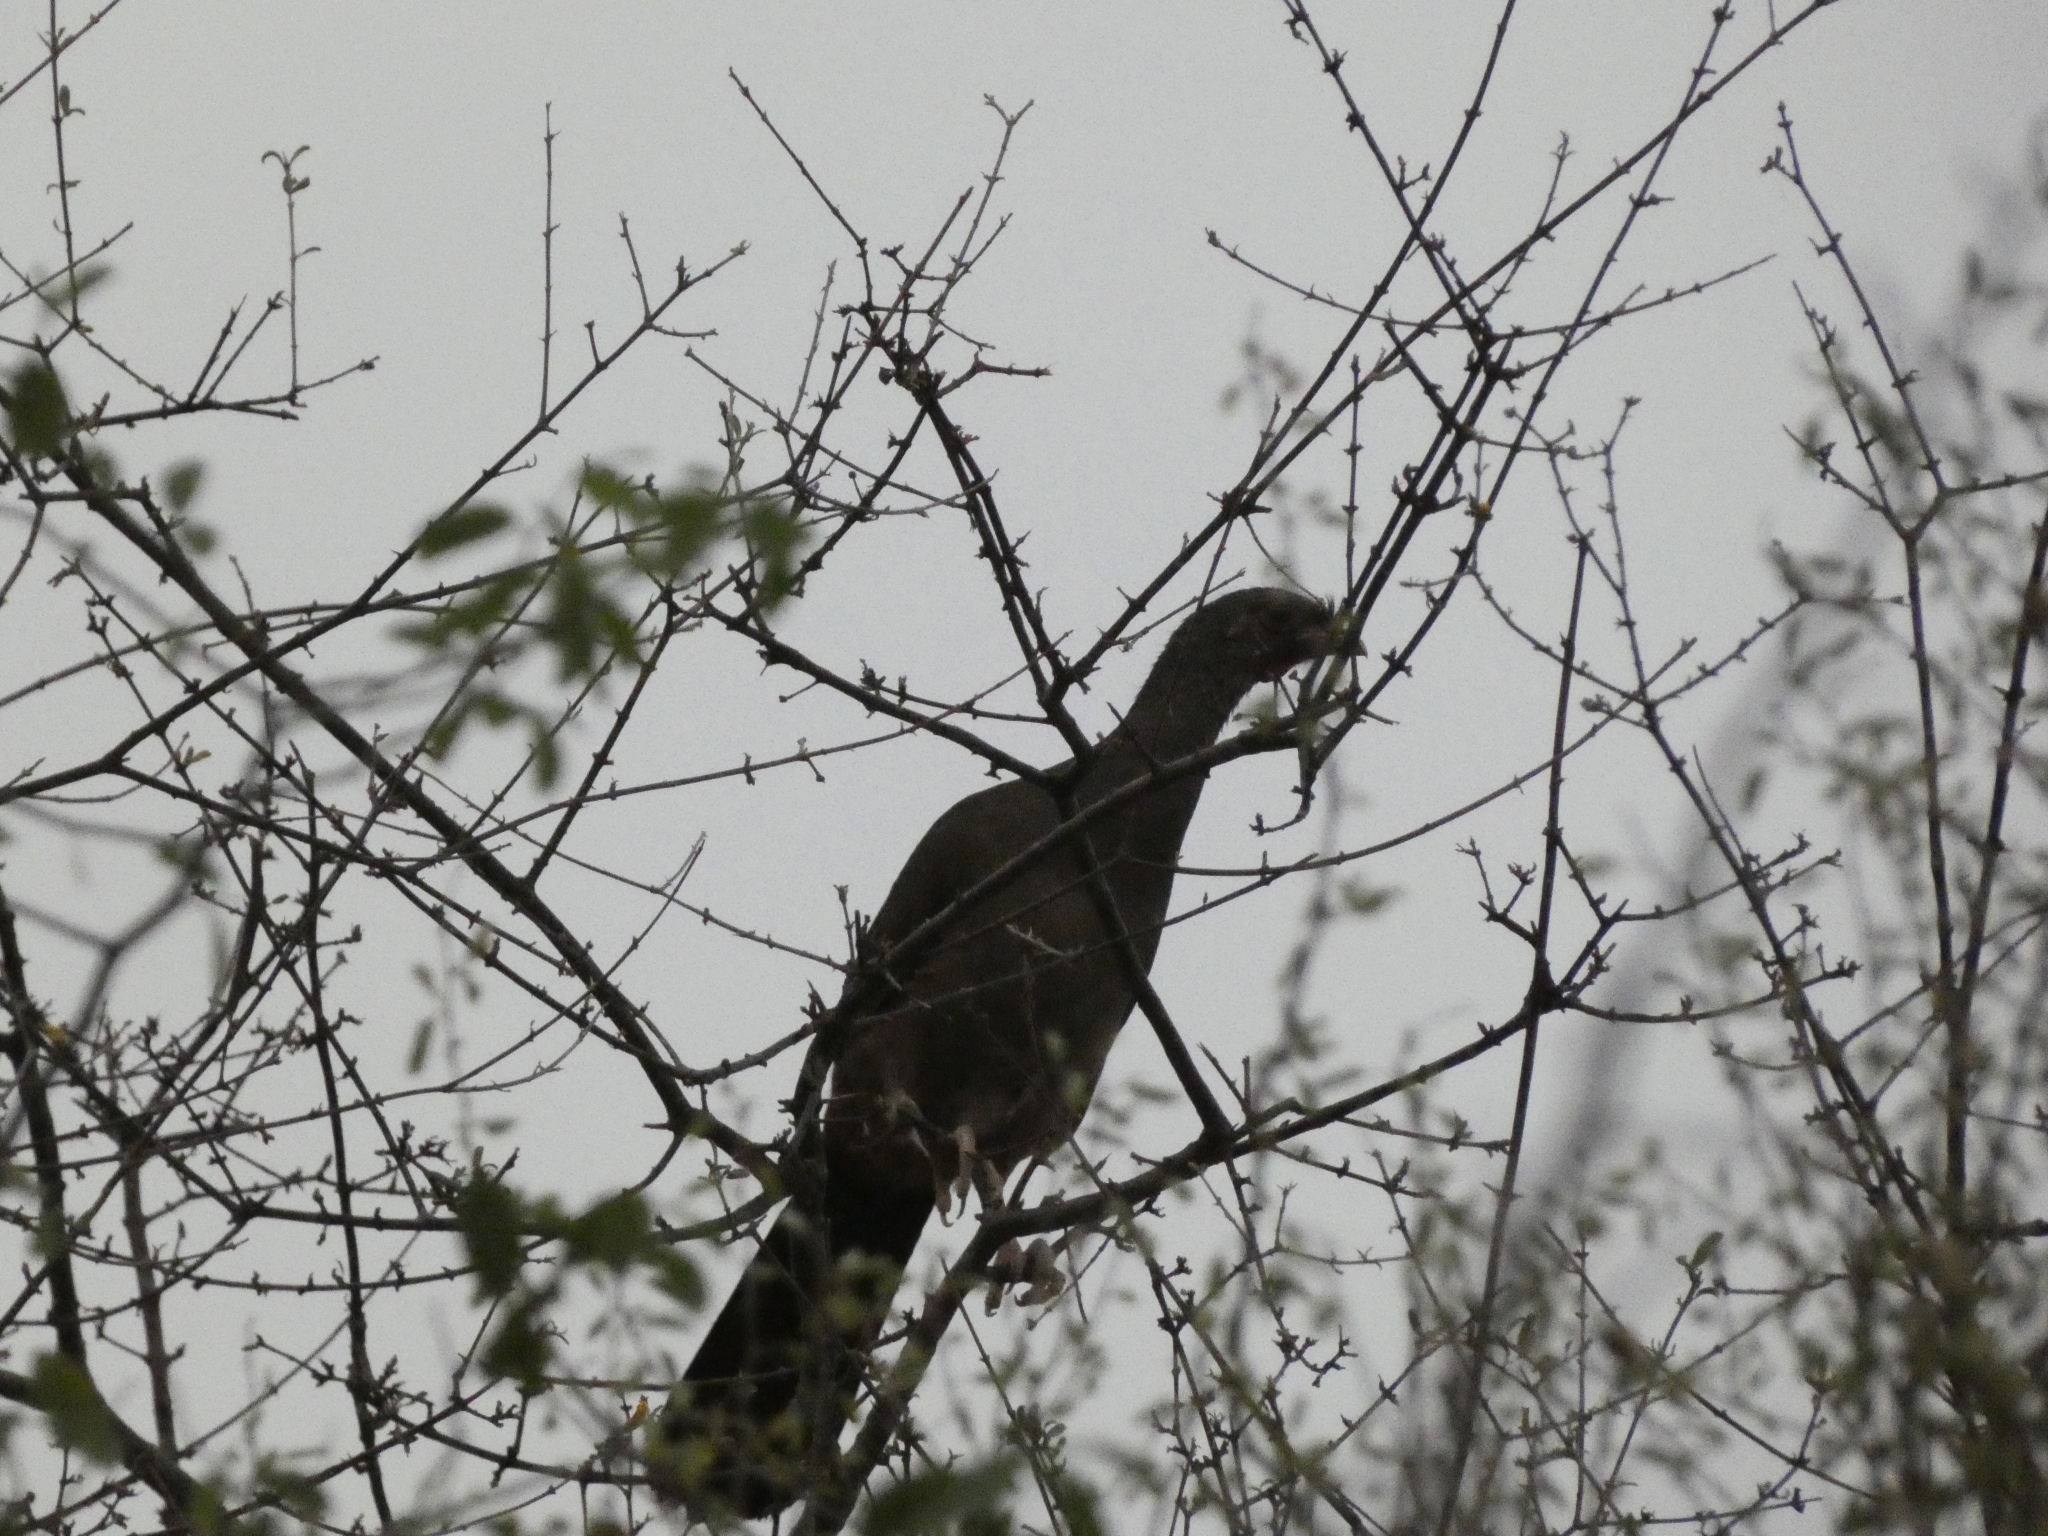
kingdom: Animalia
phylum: Chordata
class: Aves
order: Galliformes
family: Cracidae
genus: Ortalis
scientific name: Ortalis canicollis
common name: Chaco chachalaca
